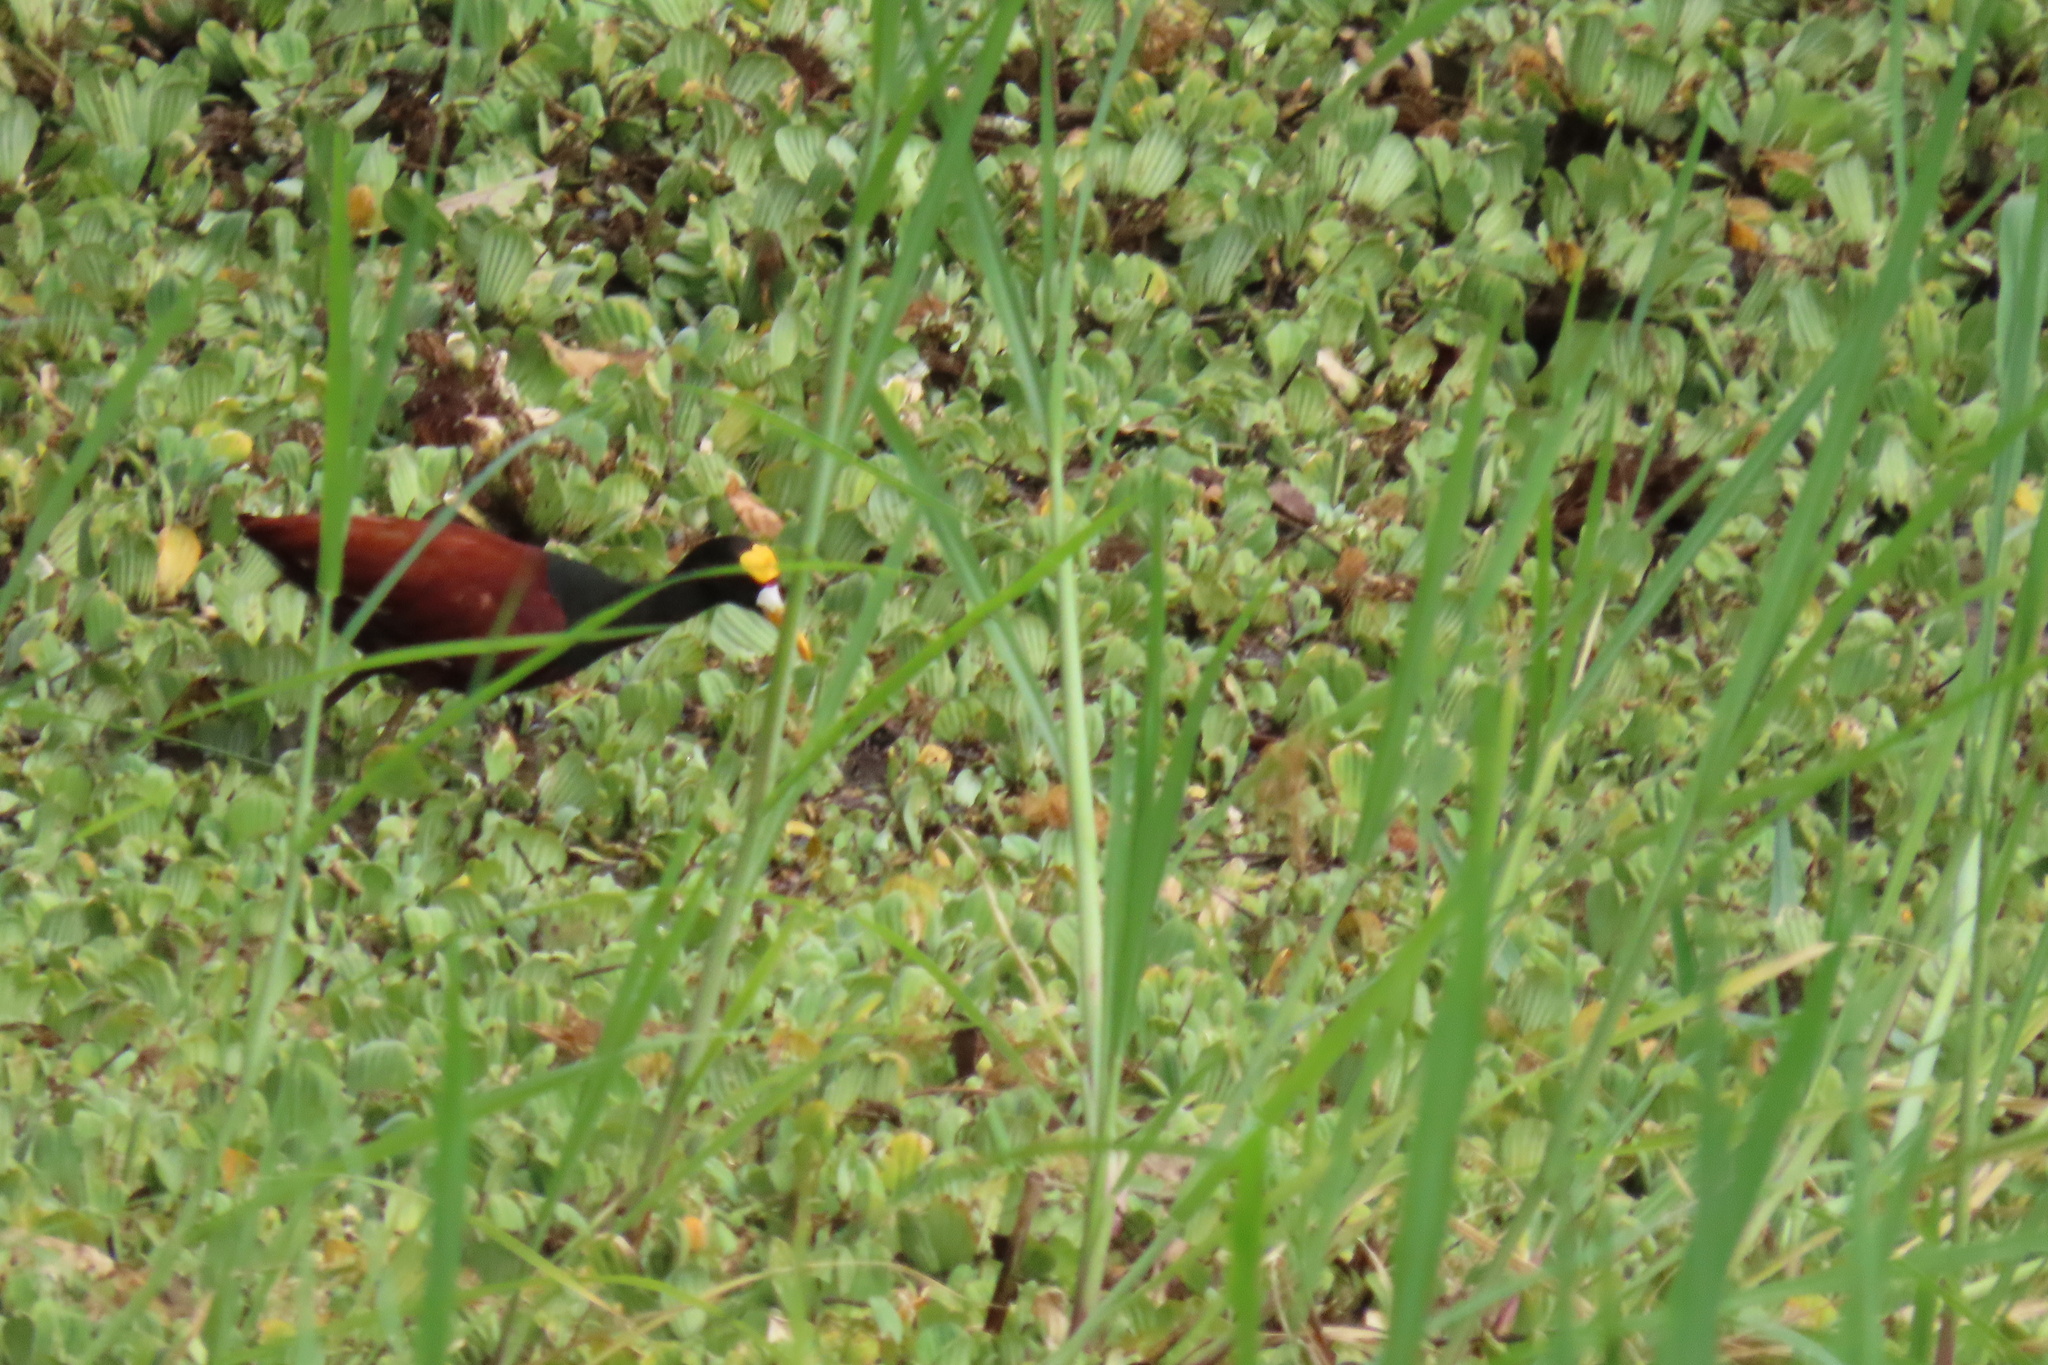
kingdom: Animalia
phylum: Chordata
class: Aves
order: Charadriiformes
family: Jacanidae
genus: Jacana
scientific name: Jacana spinosa
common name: Northern jacana
